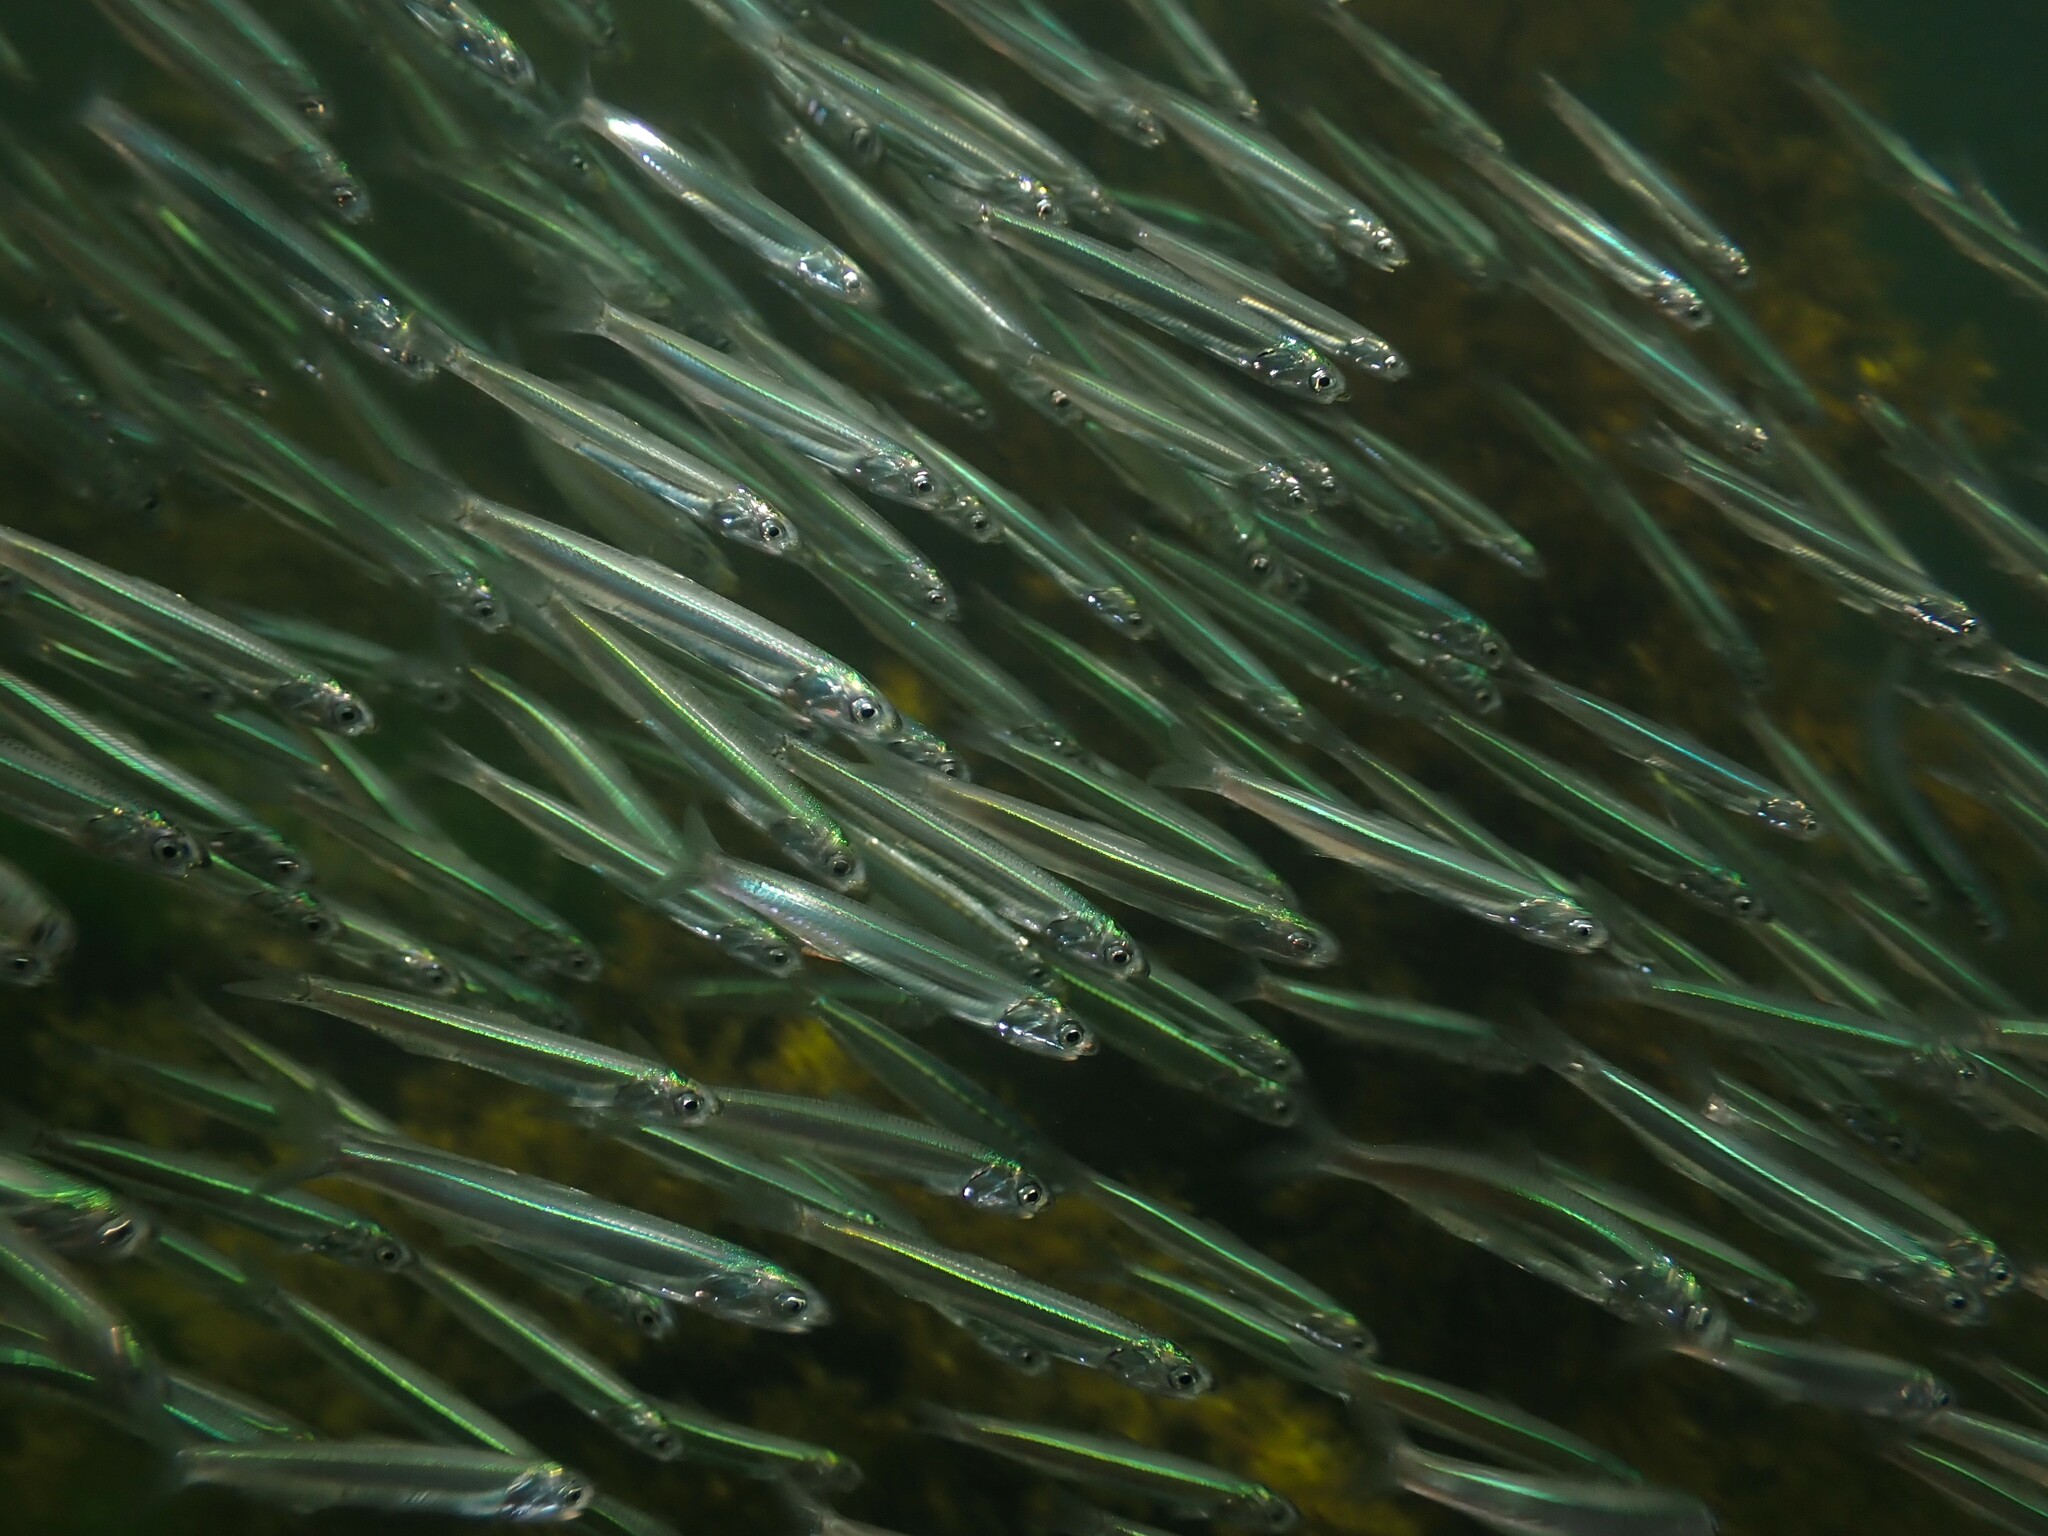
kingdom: Animalia
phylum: Chordata
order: Clupeiformes
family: Engraulidae
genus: Engraulis
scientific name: Engraulis australis
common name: Australian anchovy
